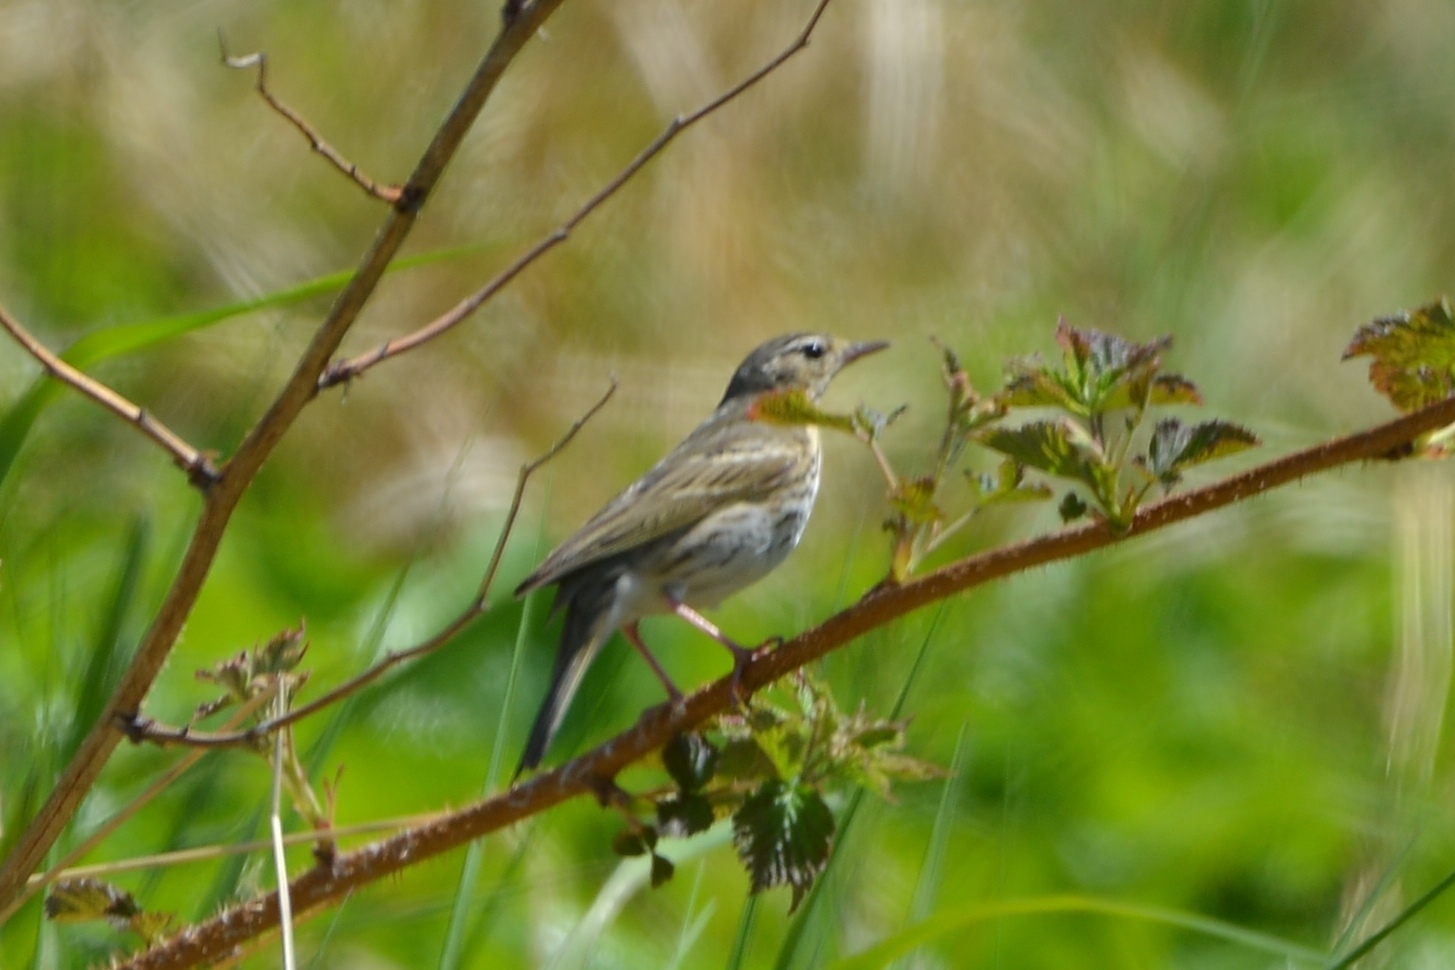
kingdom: Animalia
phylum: Chordata
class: Aves
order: Passeriformes
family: Motacillidae
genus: Anthus
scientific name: Anthus hodgsoni
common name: Olive-backed pipit
